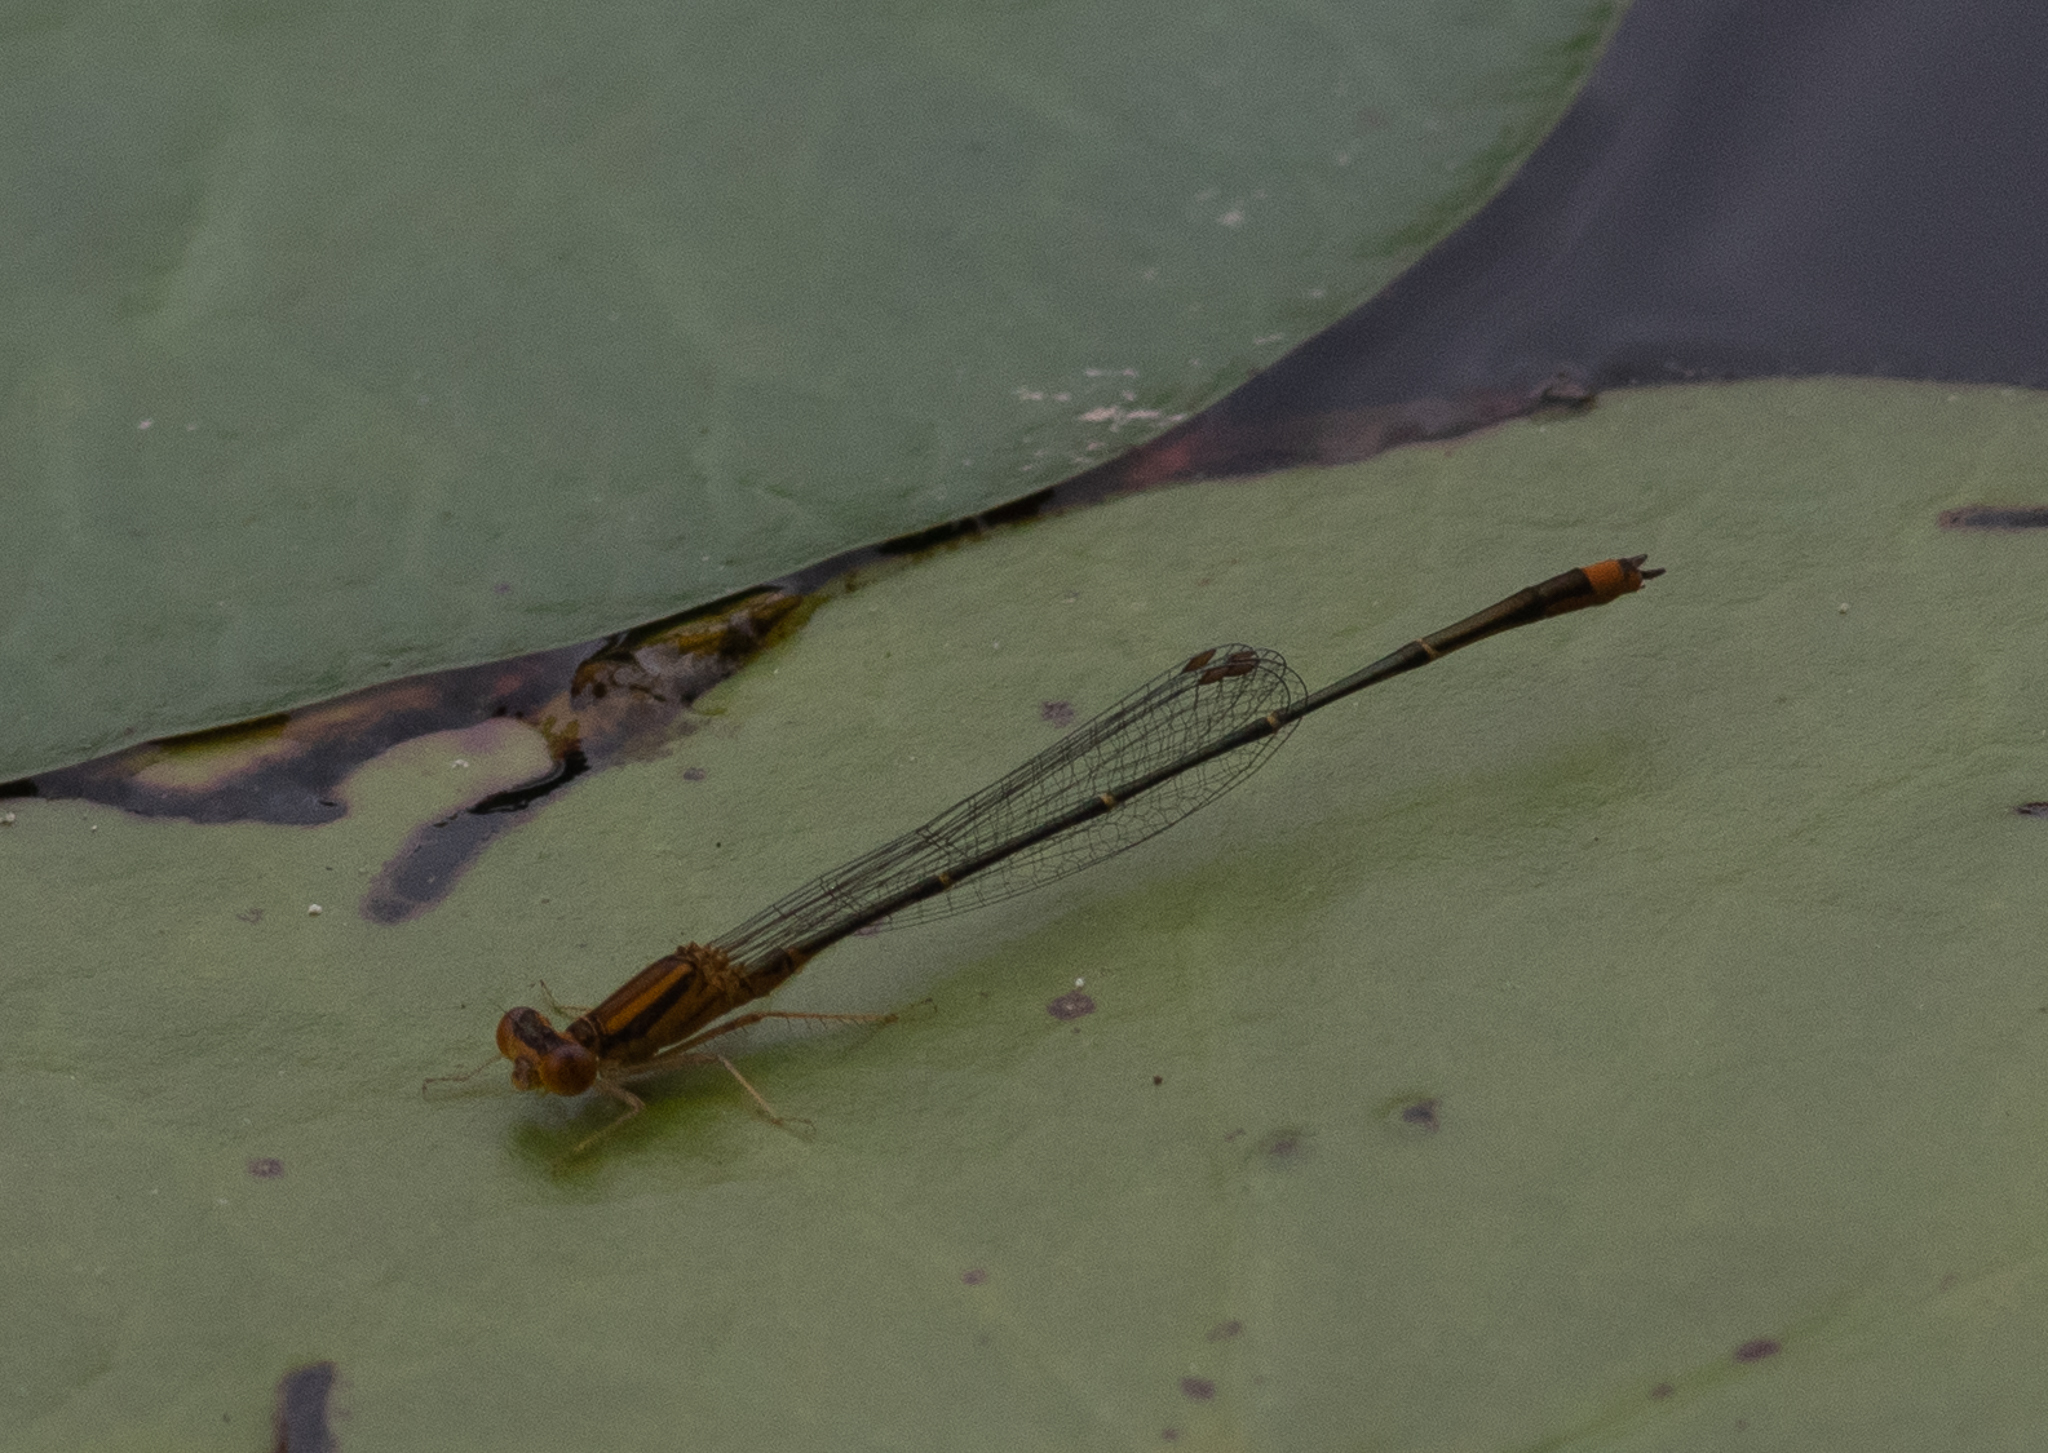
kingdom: Animalia
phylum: Arthropoda
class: Insecta
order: Odonata
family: Coenagrionidae
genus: Enallagma
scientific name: Enallagma signatum
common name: Orange bluet
